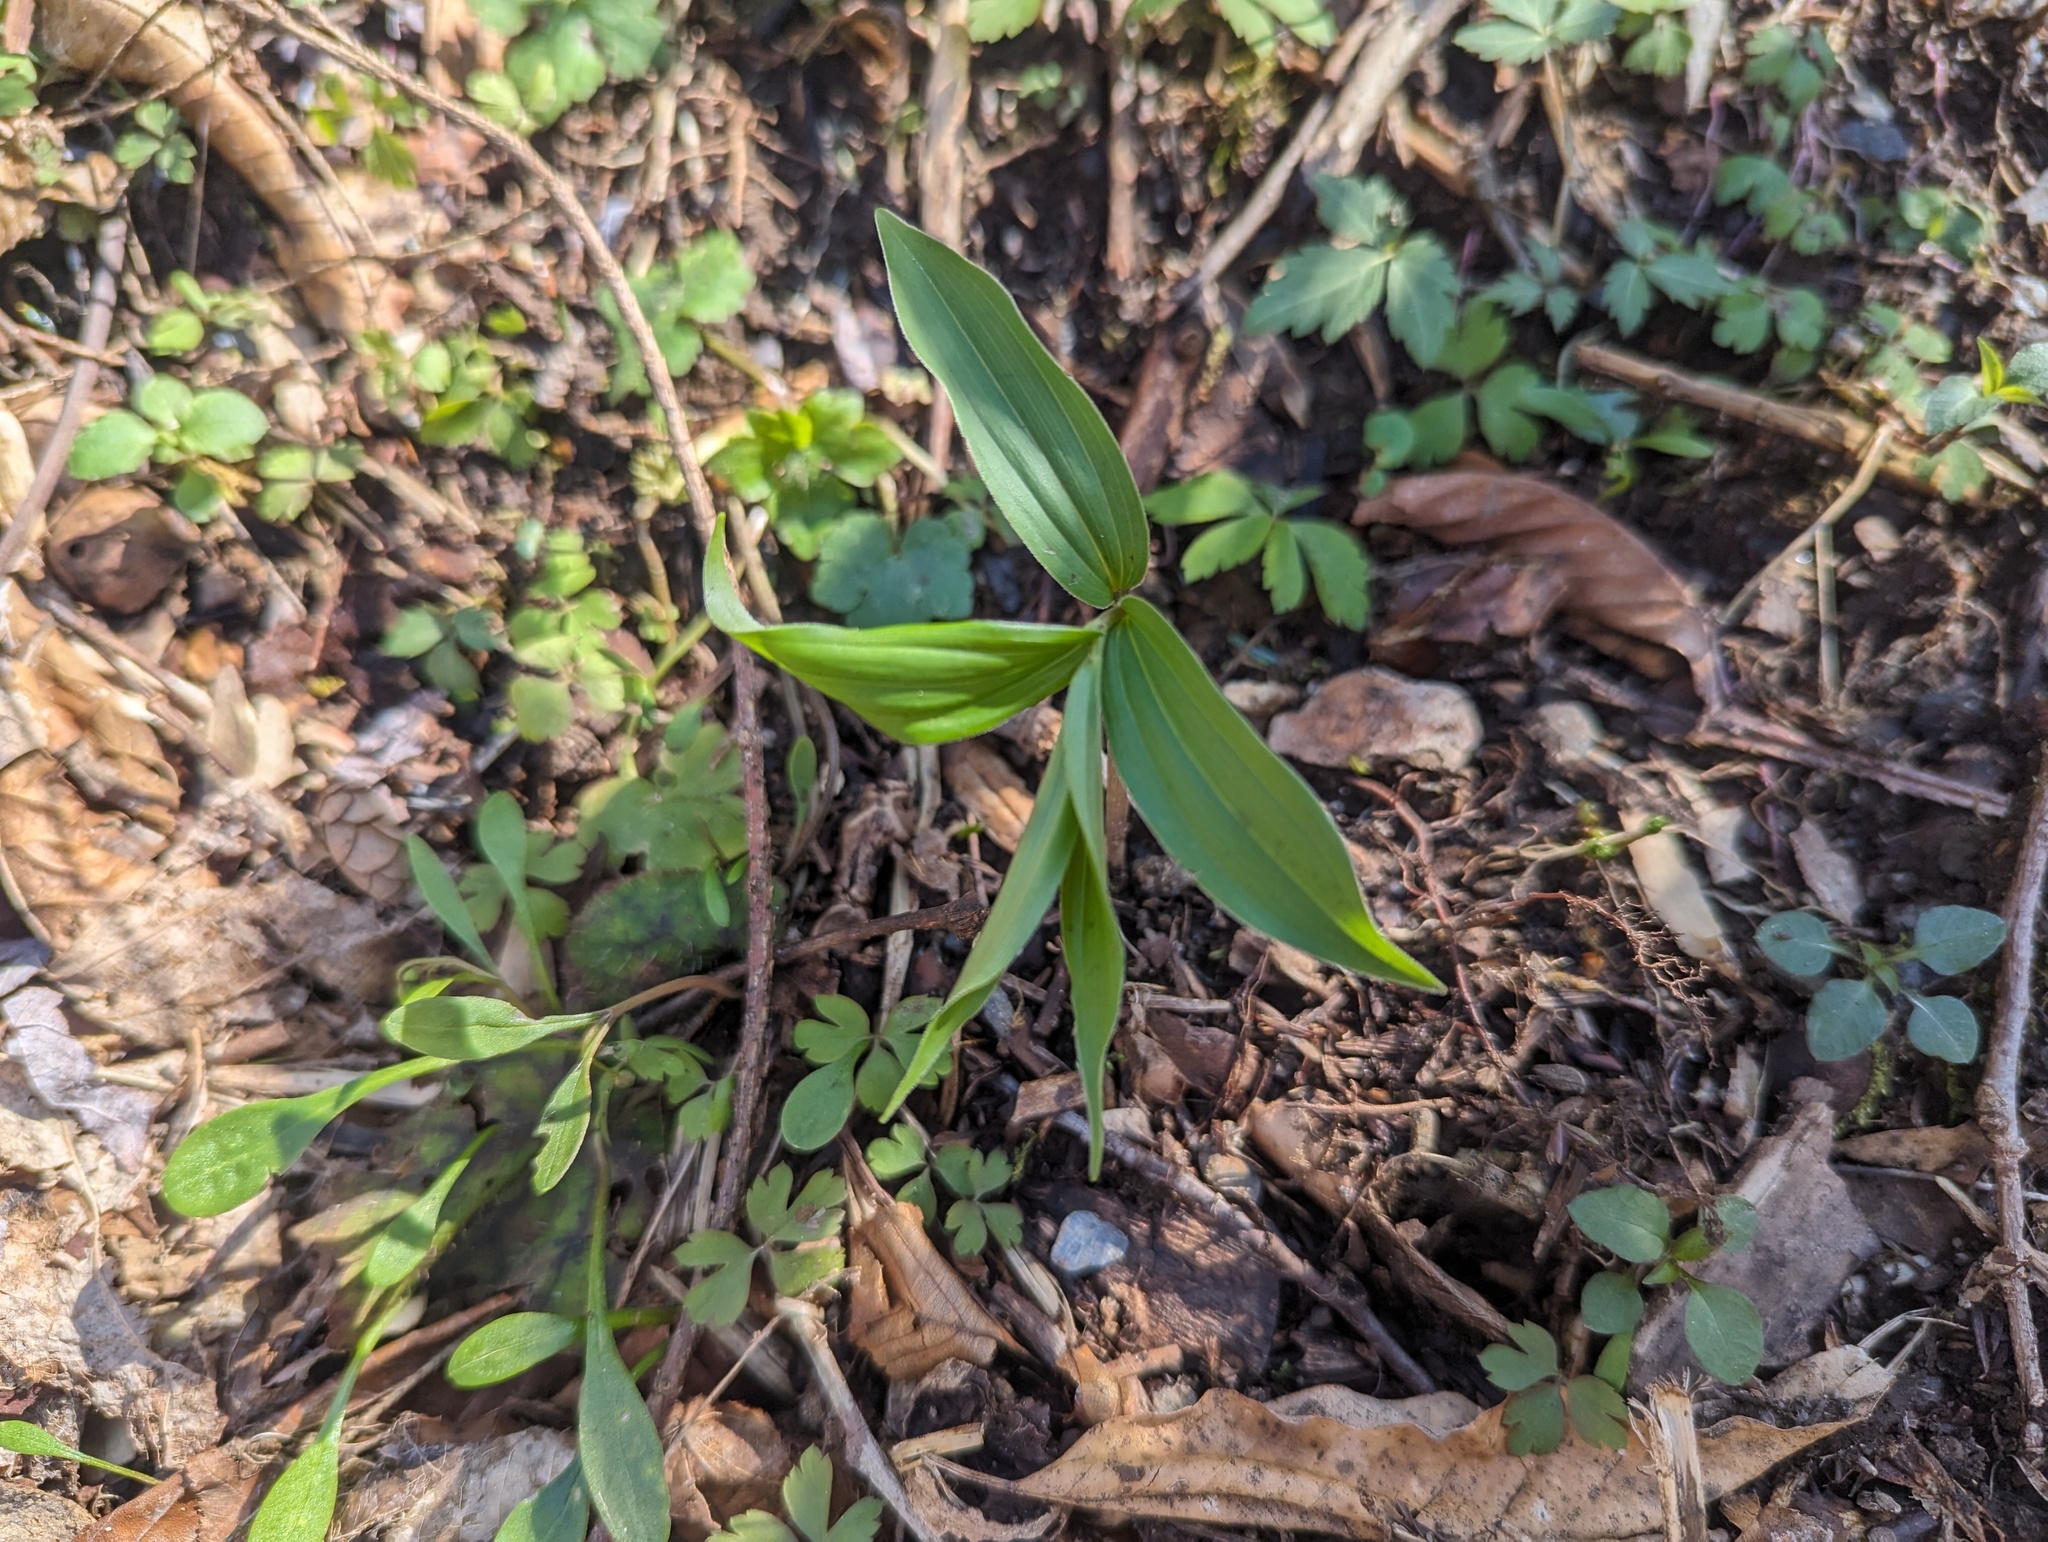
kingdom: Plantae
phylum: Tracheophyta
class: Liliopsida
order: Asparagales
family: Asparagaceae
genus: Maianthemum
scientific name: Maianthemum racemosum
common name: False spikenard
